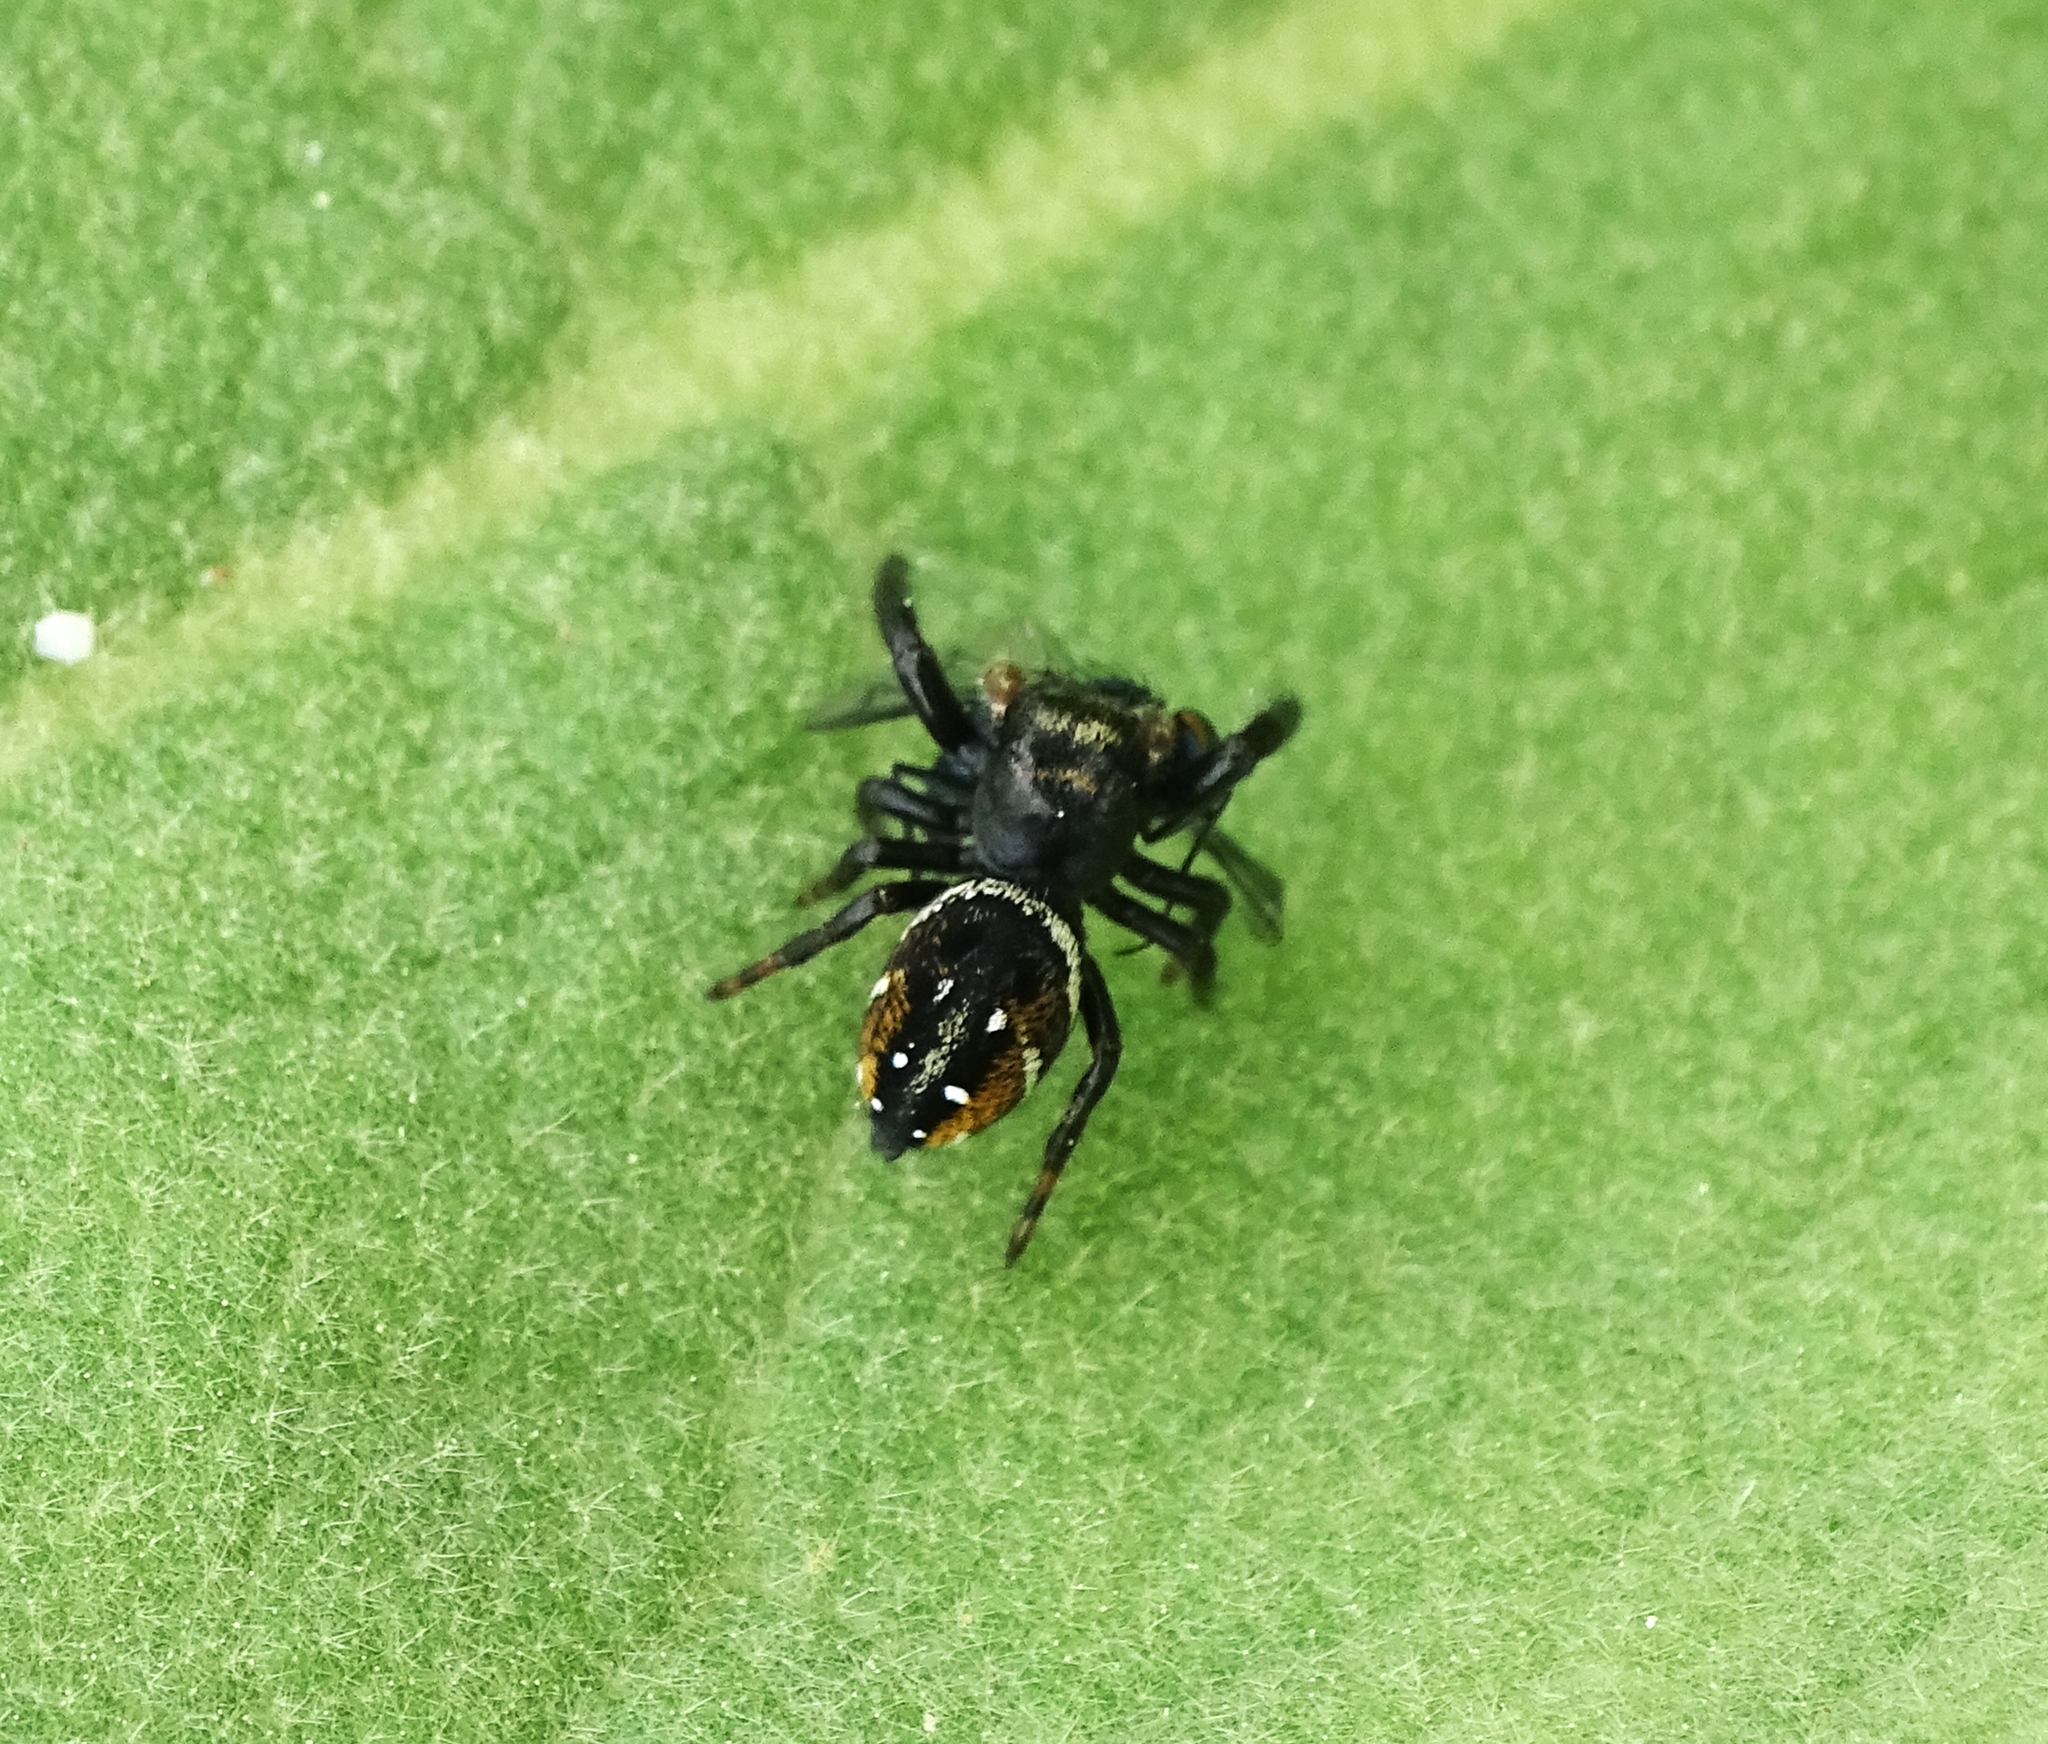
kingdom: Animalia
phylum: Arthropoda
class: Arachnida
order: Araneae
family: Salticidae
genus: Phidippus
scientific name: Phidippus clarus
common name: Brilliant jumping spider
